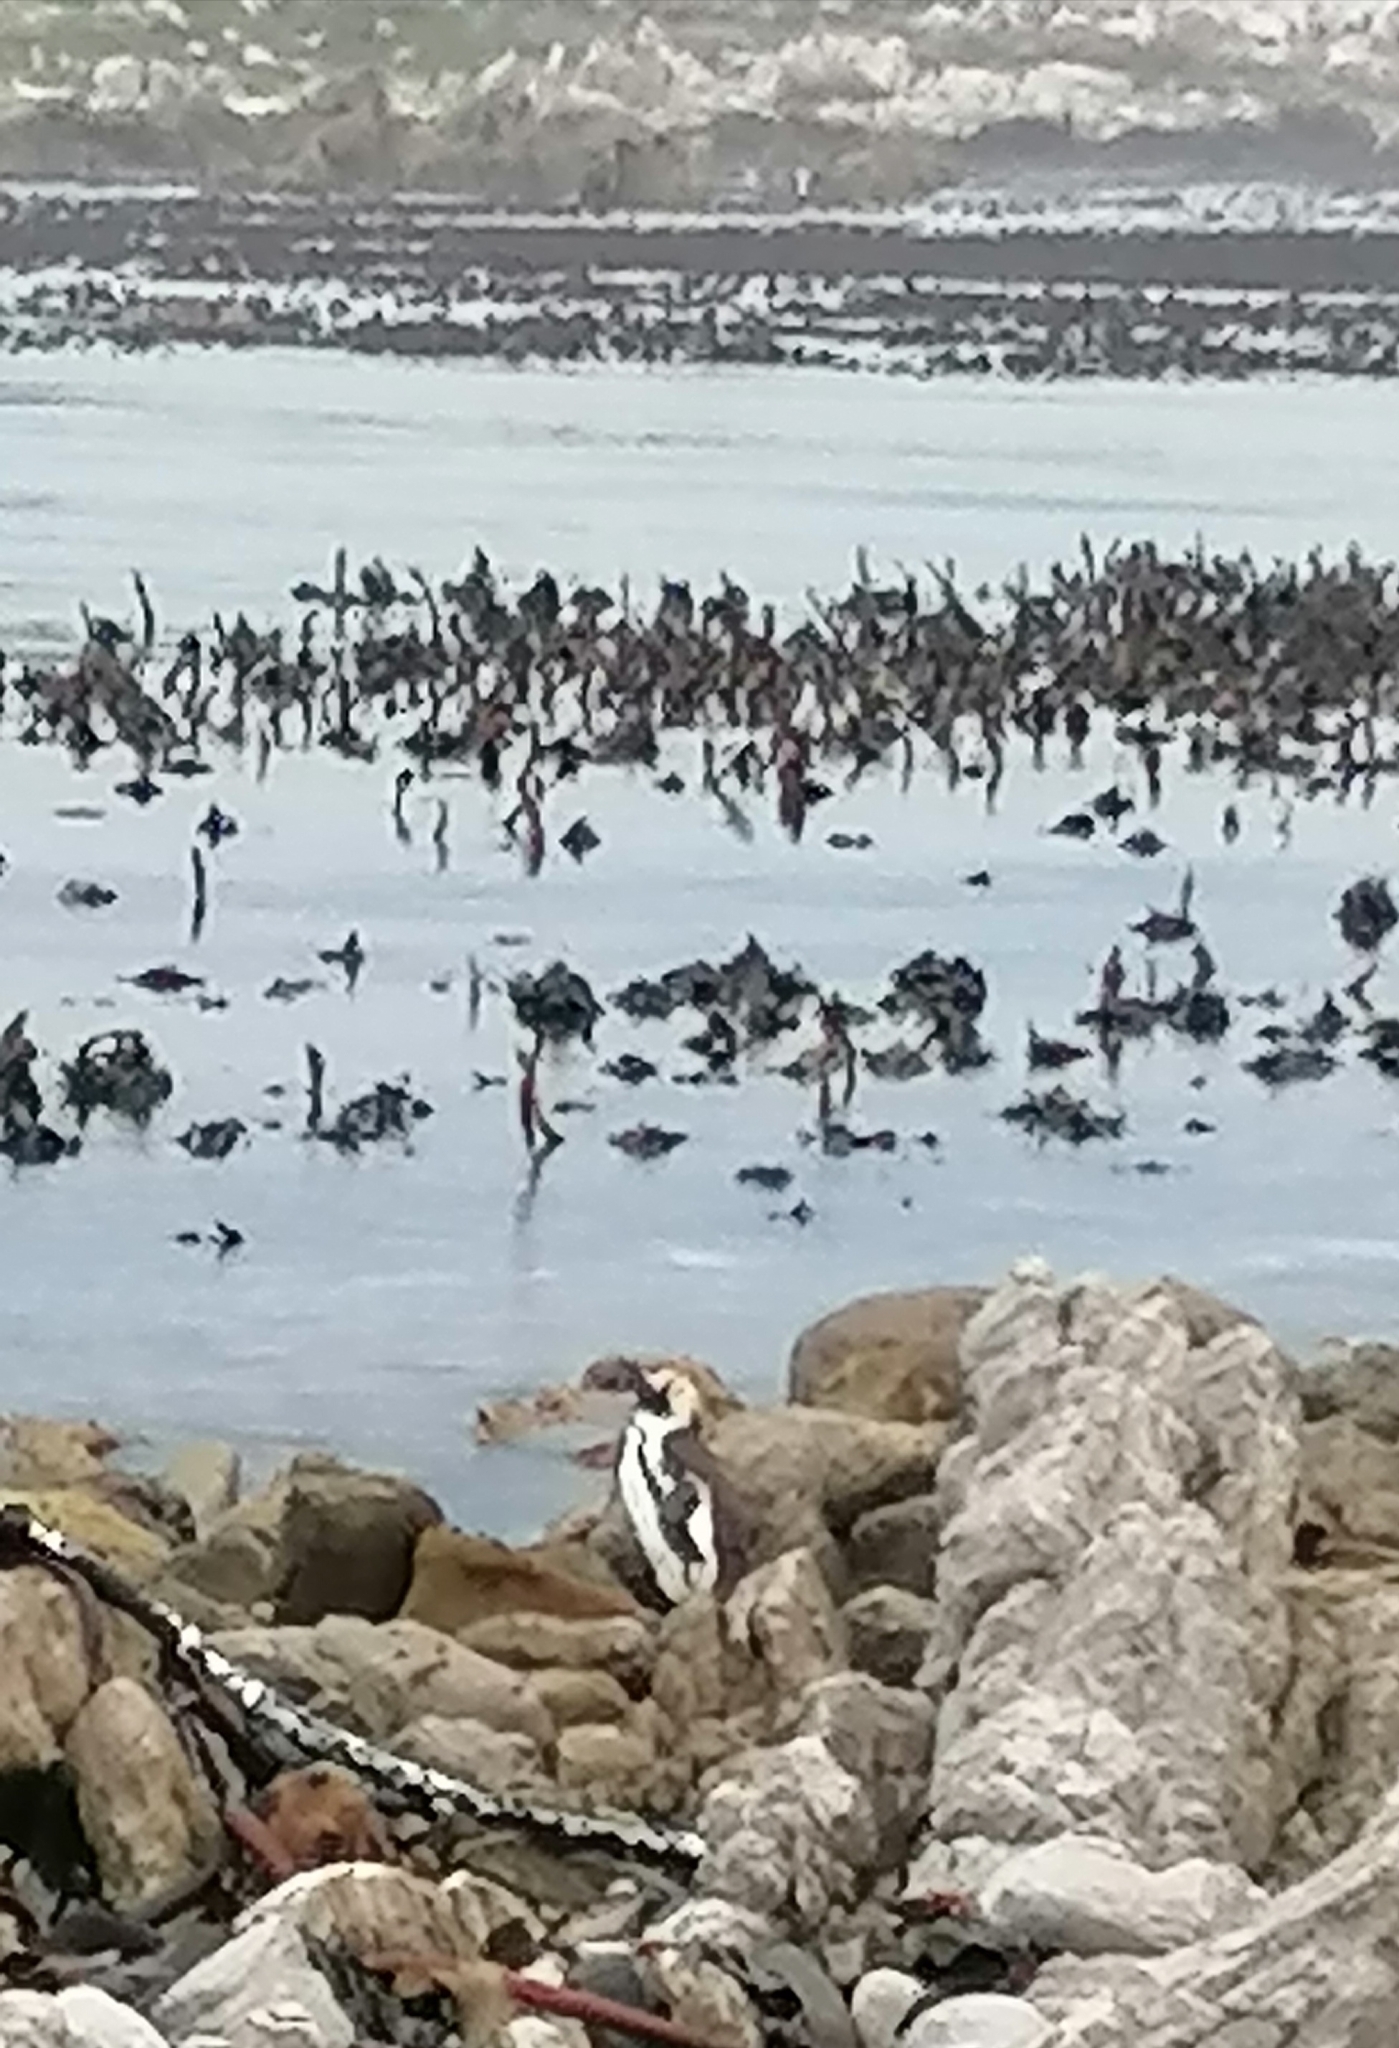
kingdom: Animalia
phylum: Chordata
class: Aves
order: Sphenisciformes
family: Spheniscidae
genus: Spheniscus
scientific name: Spheniscus demersus
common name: African penguin
